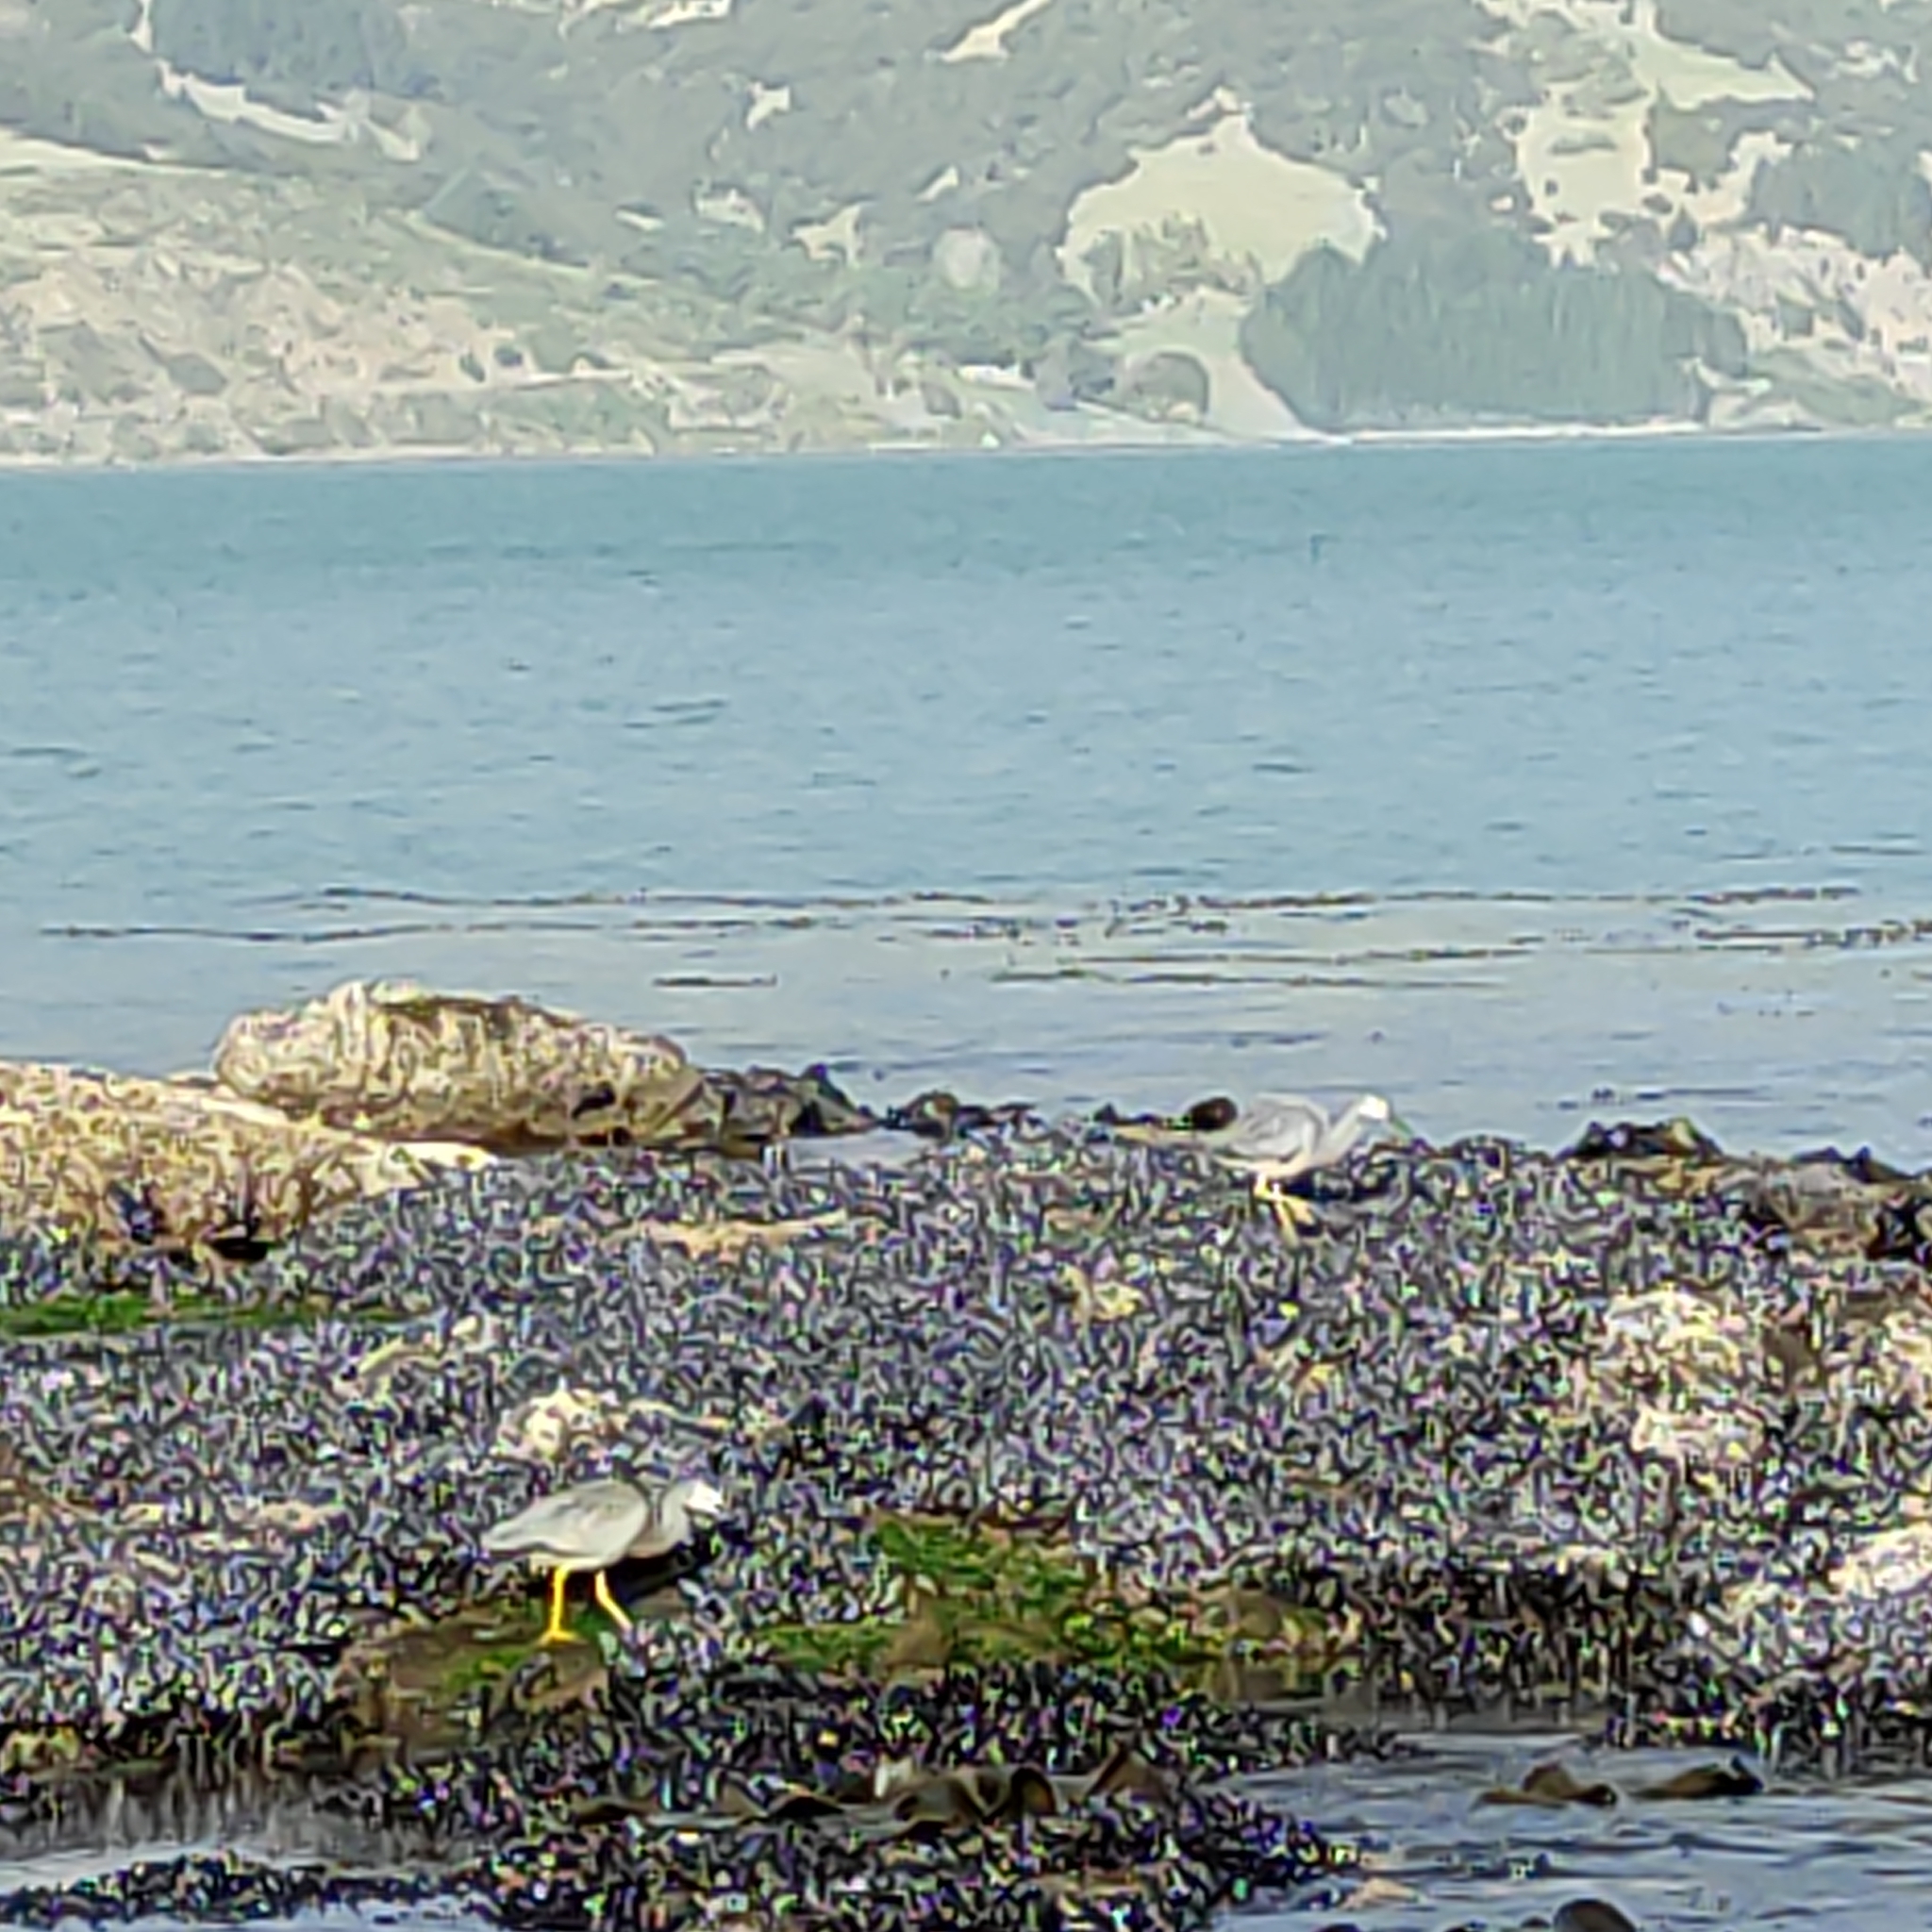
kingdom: Animalia
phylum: Chordata
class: Aves
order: Pelecaniformes
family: Ardeidae
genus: Egretta
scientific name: Egretta novaehollandiae
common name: White-faced heron
